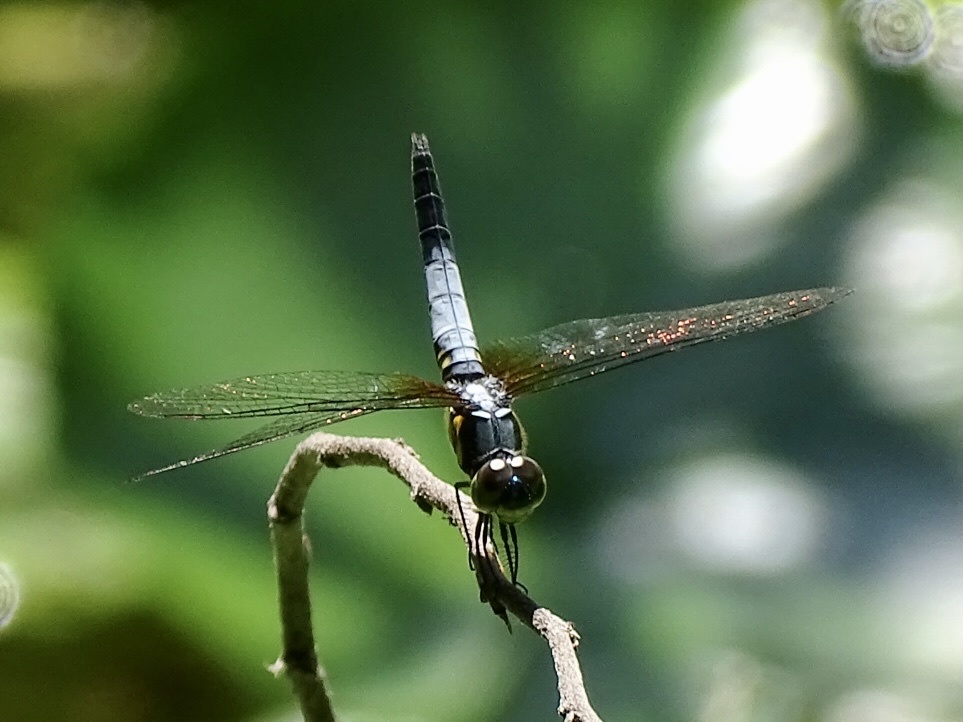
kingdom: Animalia
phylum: Arthropoda
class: Insecta
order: Odonata
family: Libellulidae
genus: Brachydiplax
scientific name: Brachydiplax chalybea
